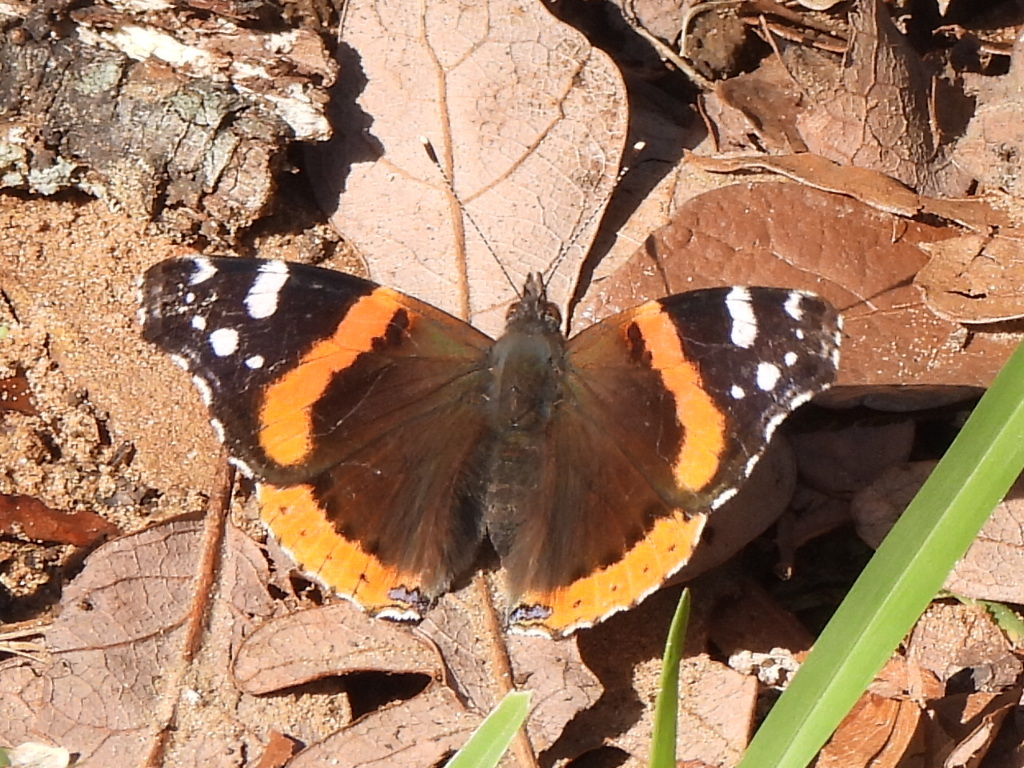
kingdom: Animalia
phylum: Arthropoda
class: Insecta
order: Lepidoptera
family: Nymphalidae
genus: Vanessa
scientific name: Vanessa atalanta
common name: Red admiral
